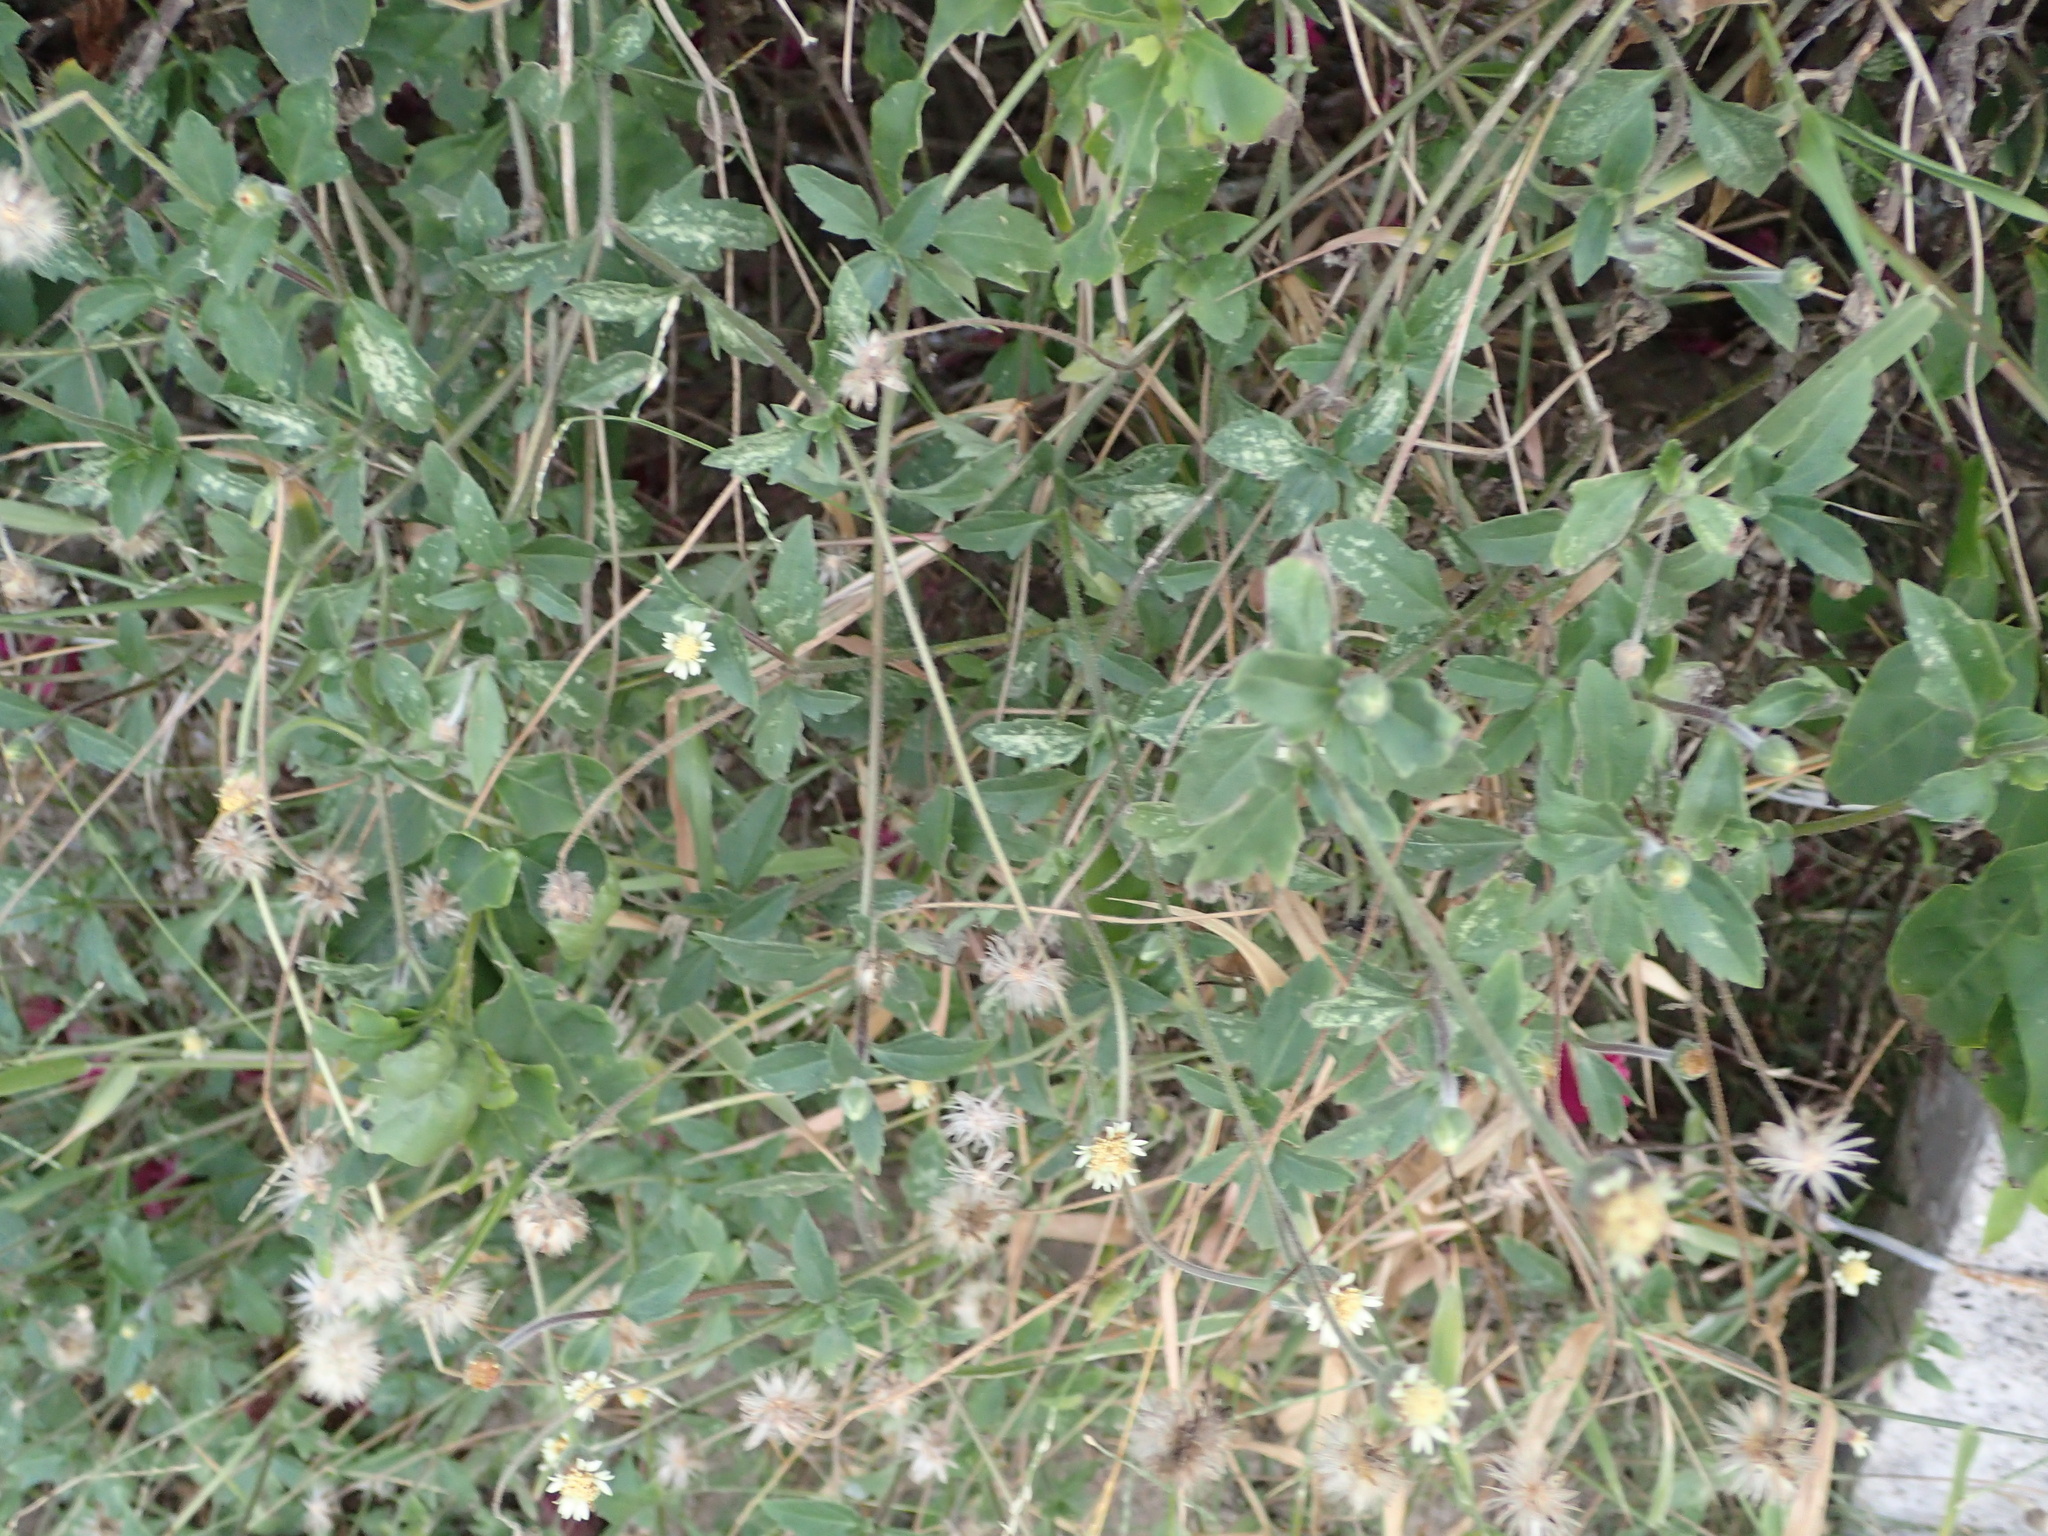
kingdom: Plantae
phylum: Tracheophyta
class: Magnoliopsida
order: Asterales
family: Asteraceae
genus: Tridax
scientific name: Tridax procumbens
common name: Coatbuttons
